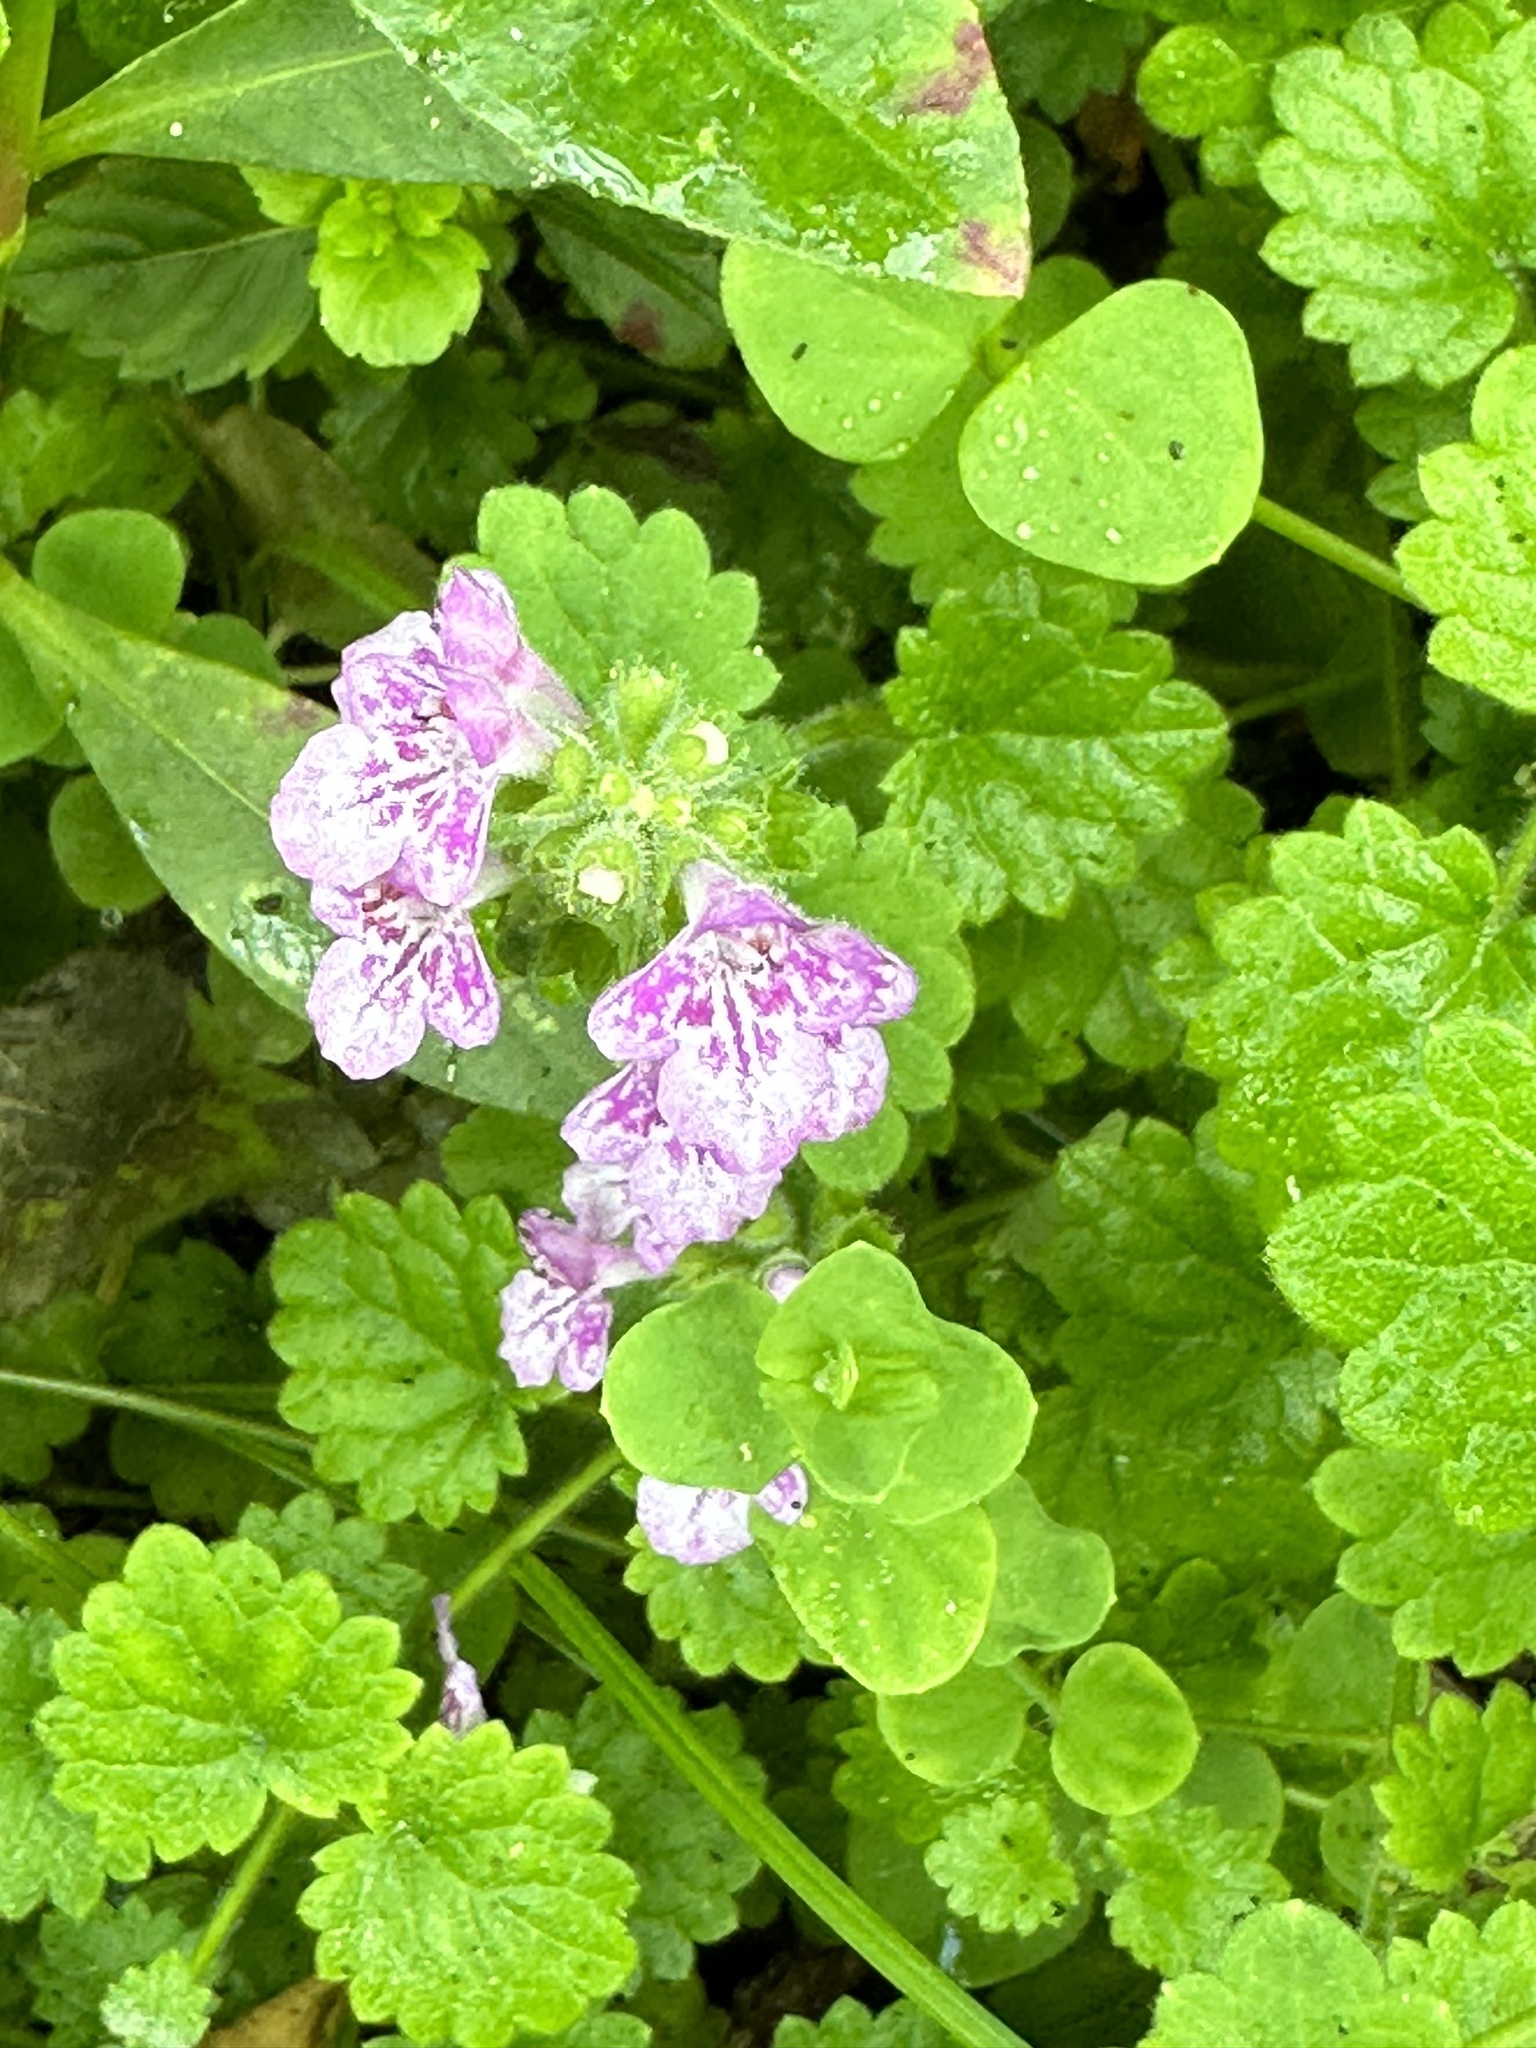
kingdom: Plantae
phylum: Tracheophyta
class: Magnoliopsida
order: Lamiales
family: Lamiaceae
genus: Suzukia
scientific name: Suzukia shikikunensis
